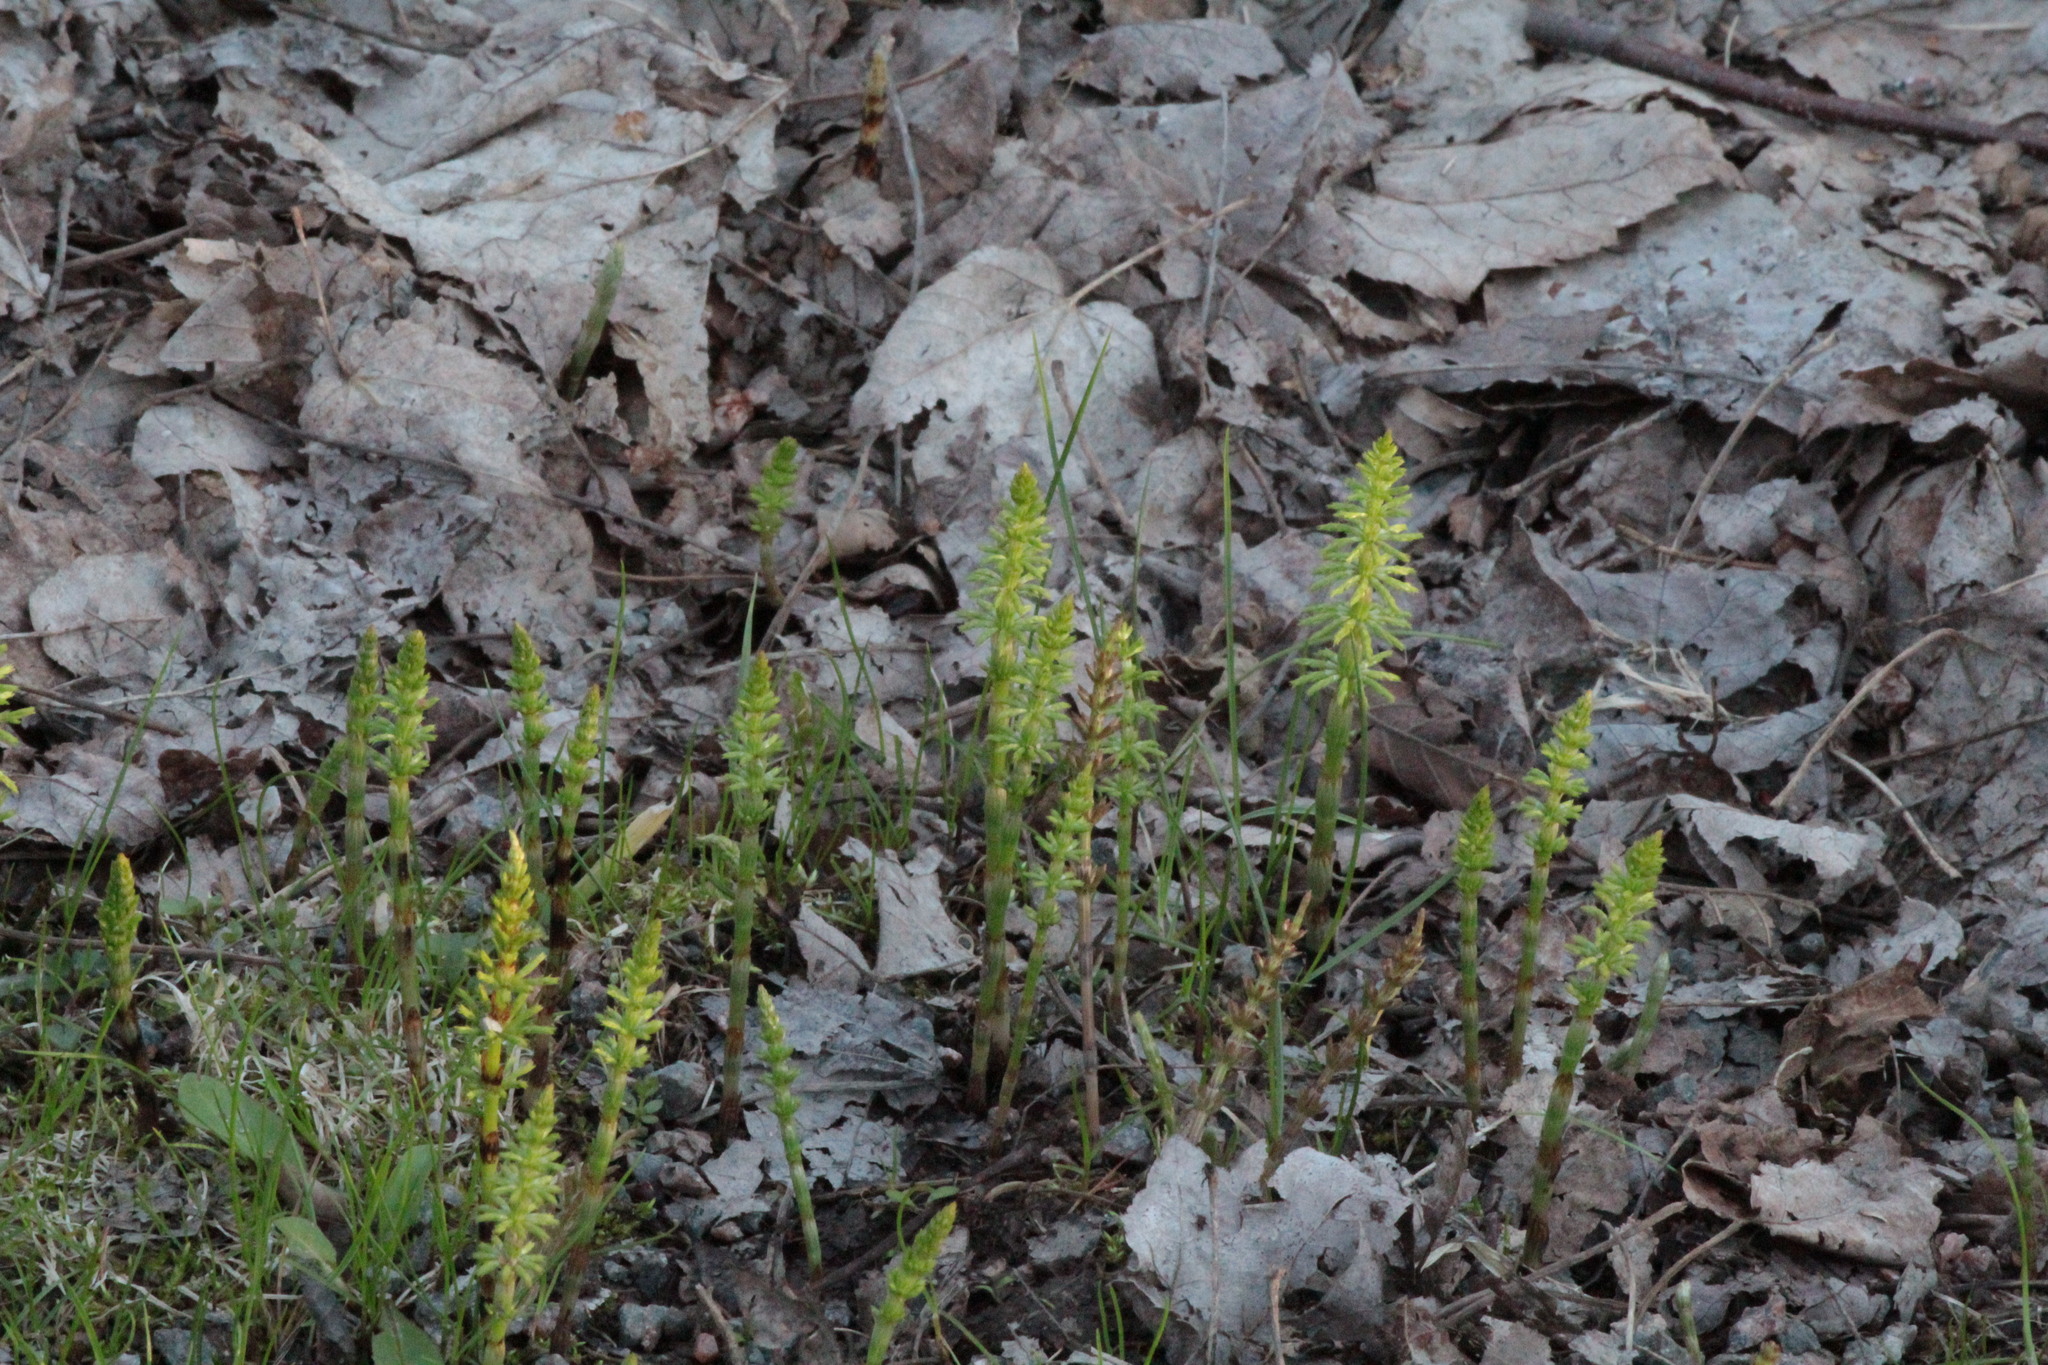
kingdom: Plantae
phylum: Tracheophyta
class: Polypodiopsida
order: Equisetales
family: Equisetaceae
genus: Equisetum
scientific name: Equisetum sylvaticum
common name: Wood horsetail
